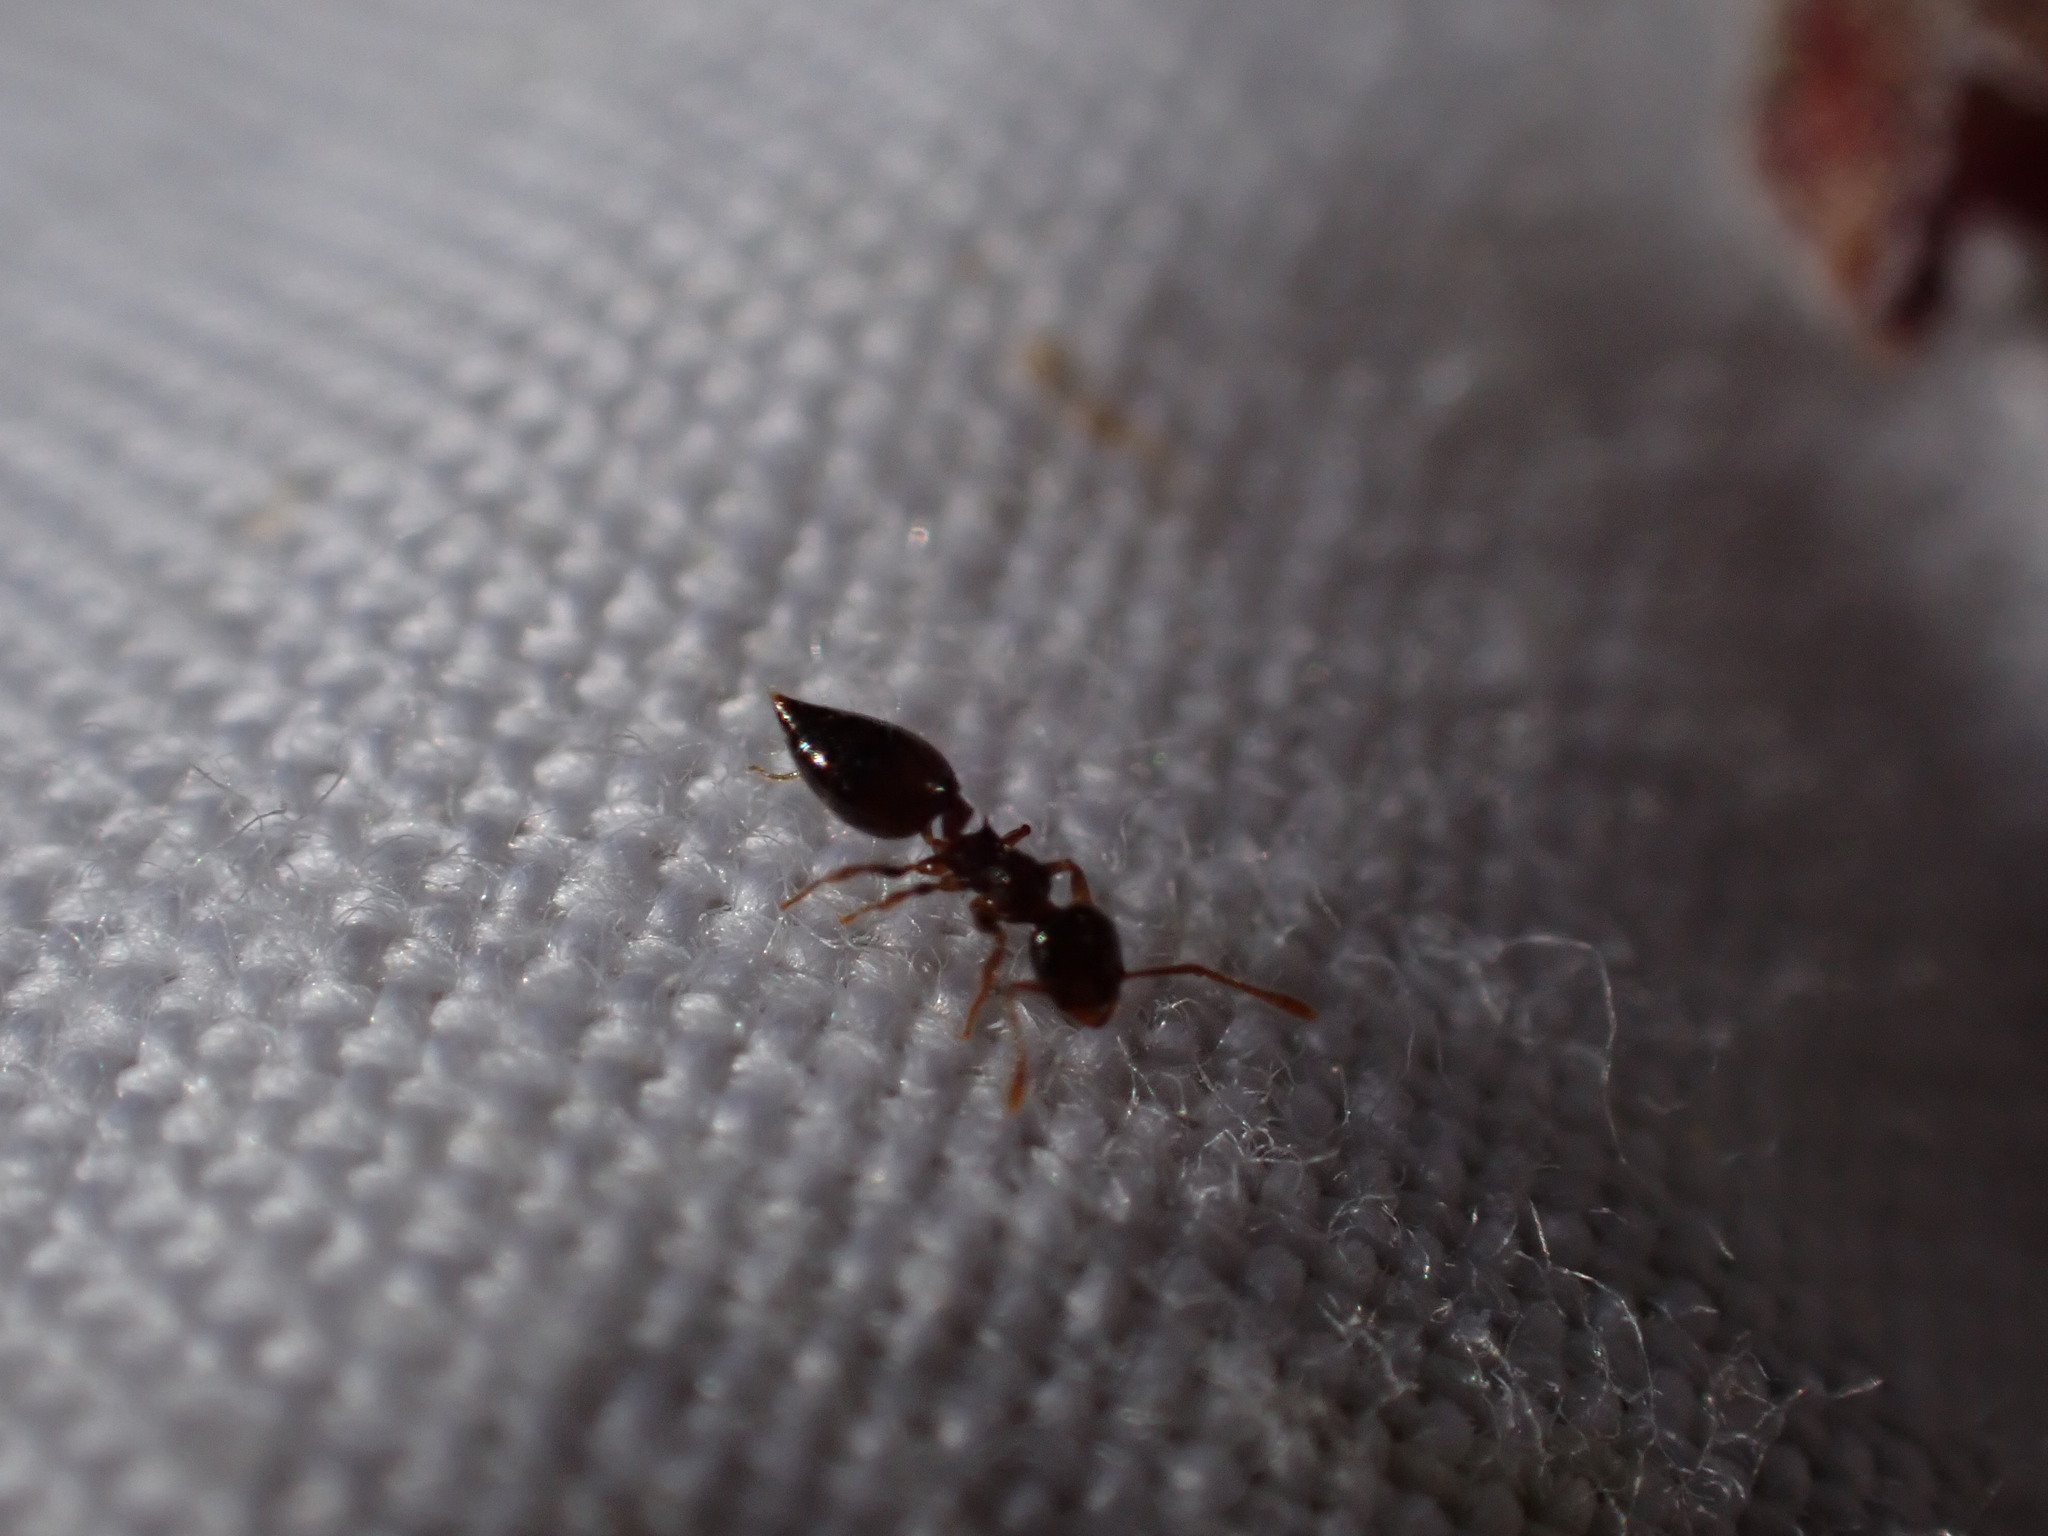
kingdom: Animalia
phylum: Arthropoda
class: Insecta
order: Hymenoptera
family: Formicidae
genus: Crematogaster
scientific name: Crematogaster sordidula
